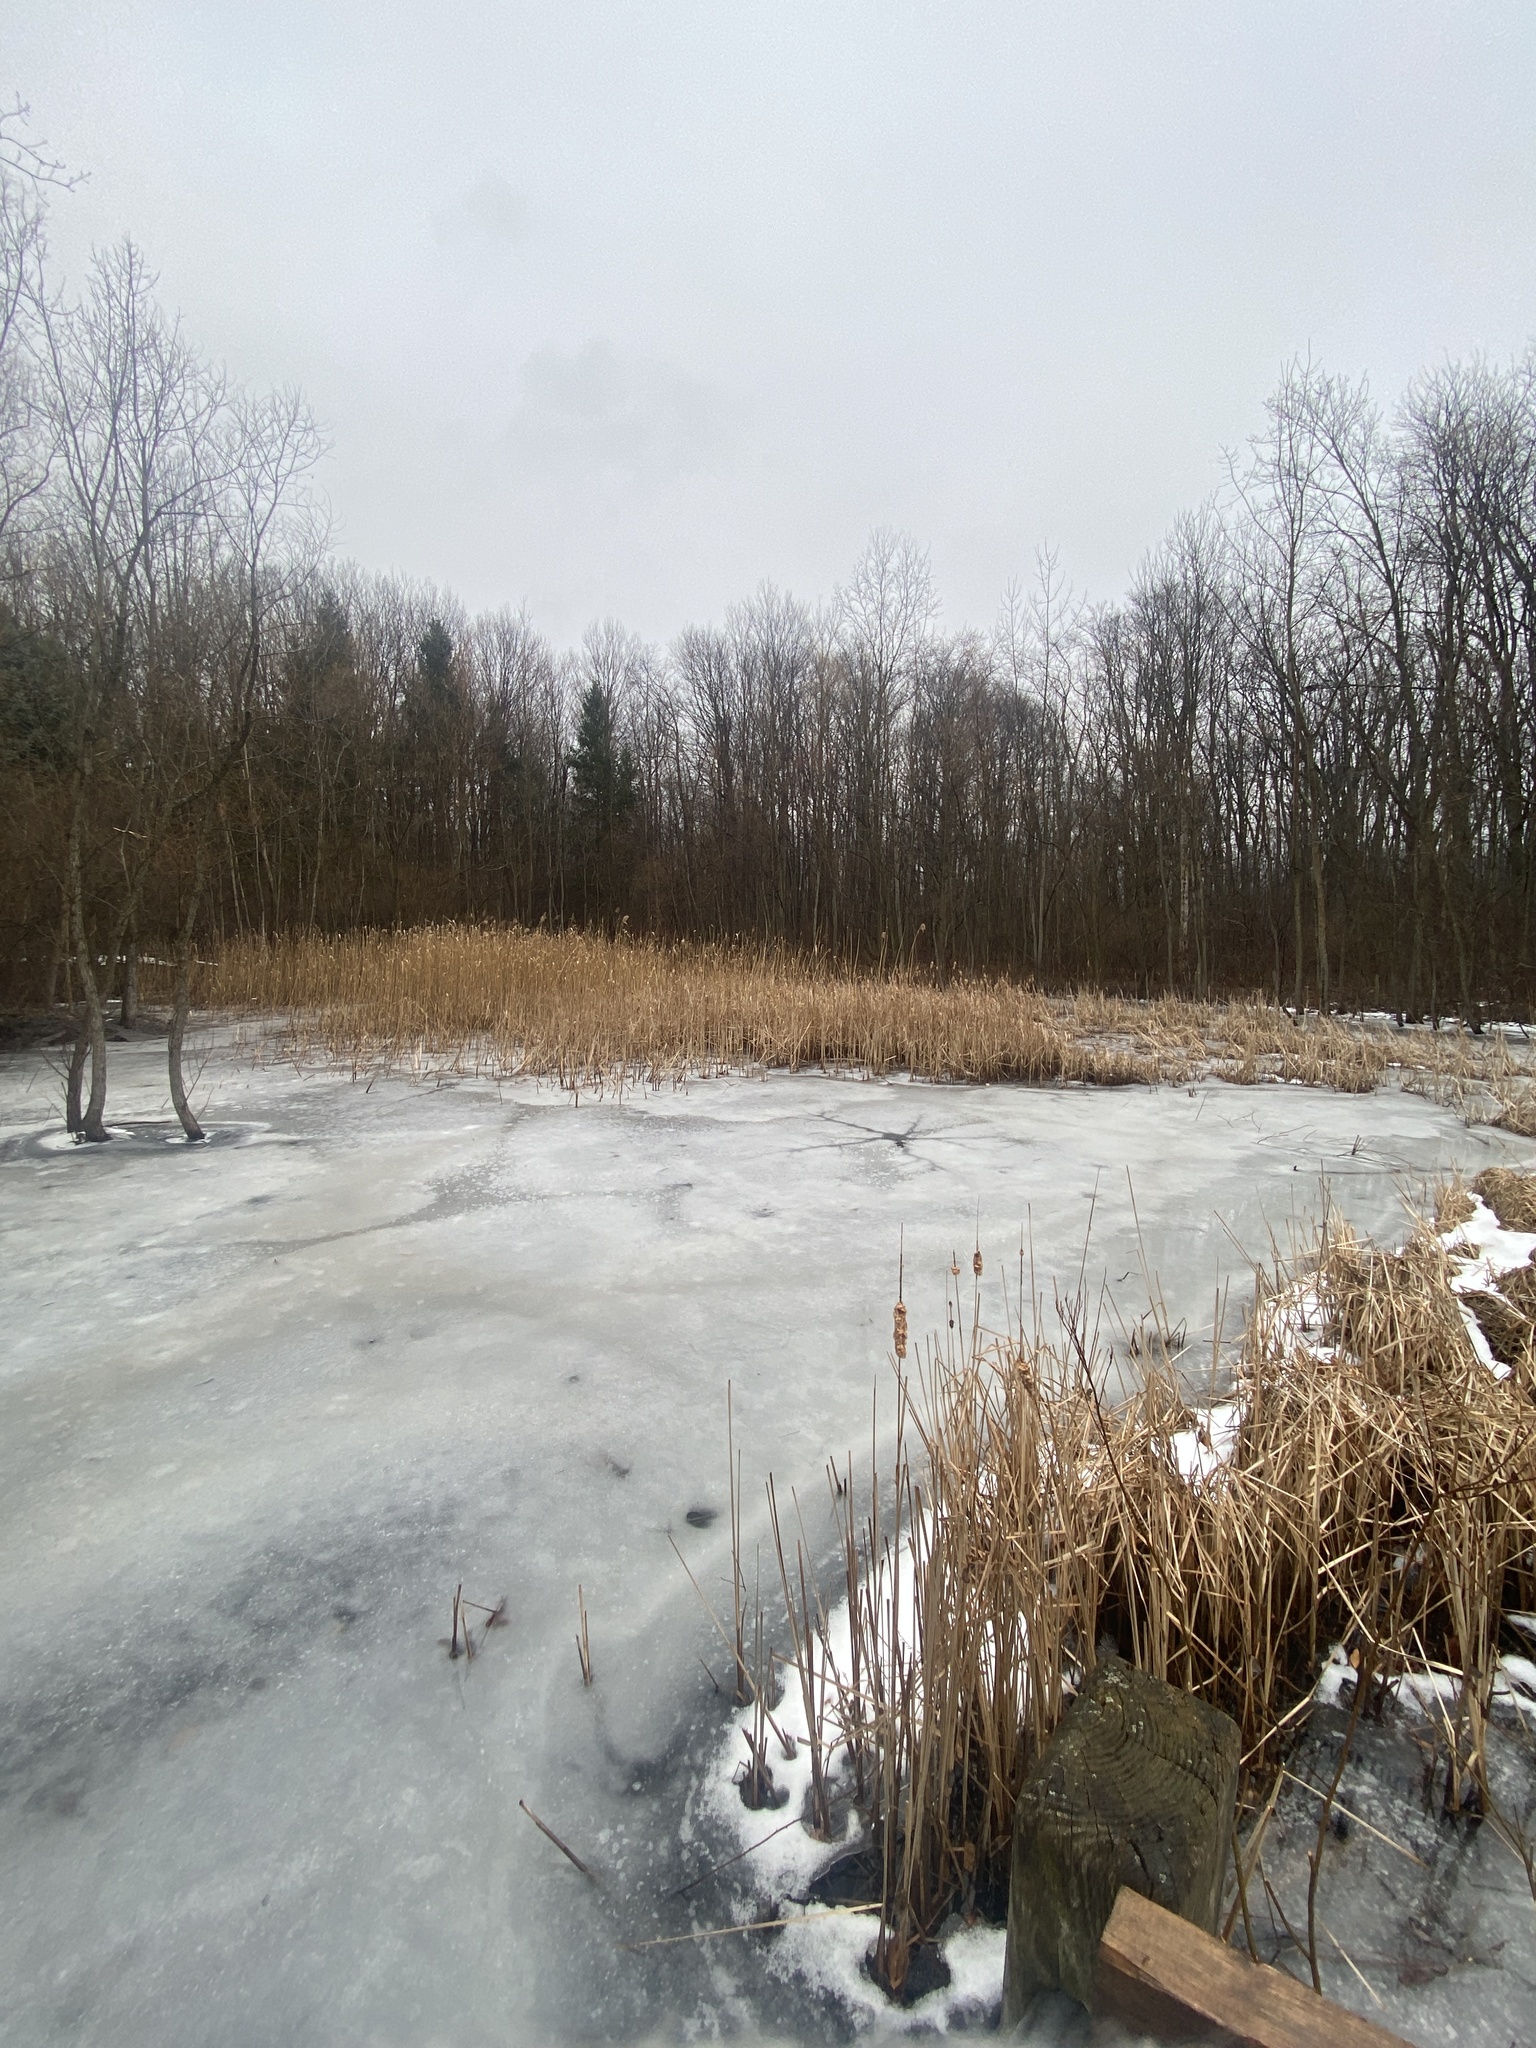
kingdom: Plantae
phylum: Tracheophyta
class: Liliopsida
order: Poales
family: Poaceae
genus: Phragmites
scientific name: Phragmites australis
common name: Common reed
